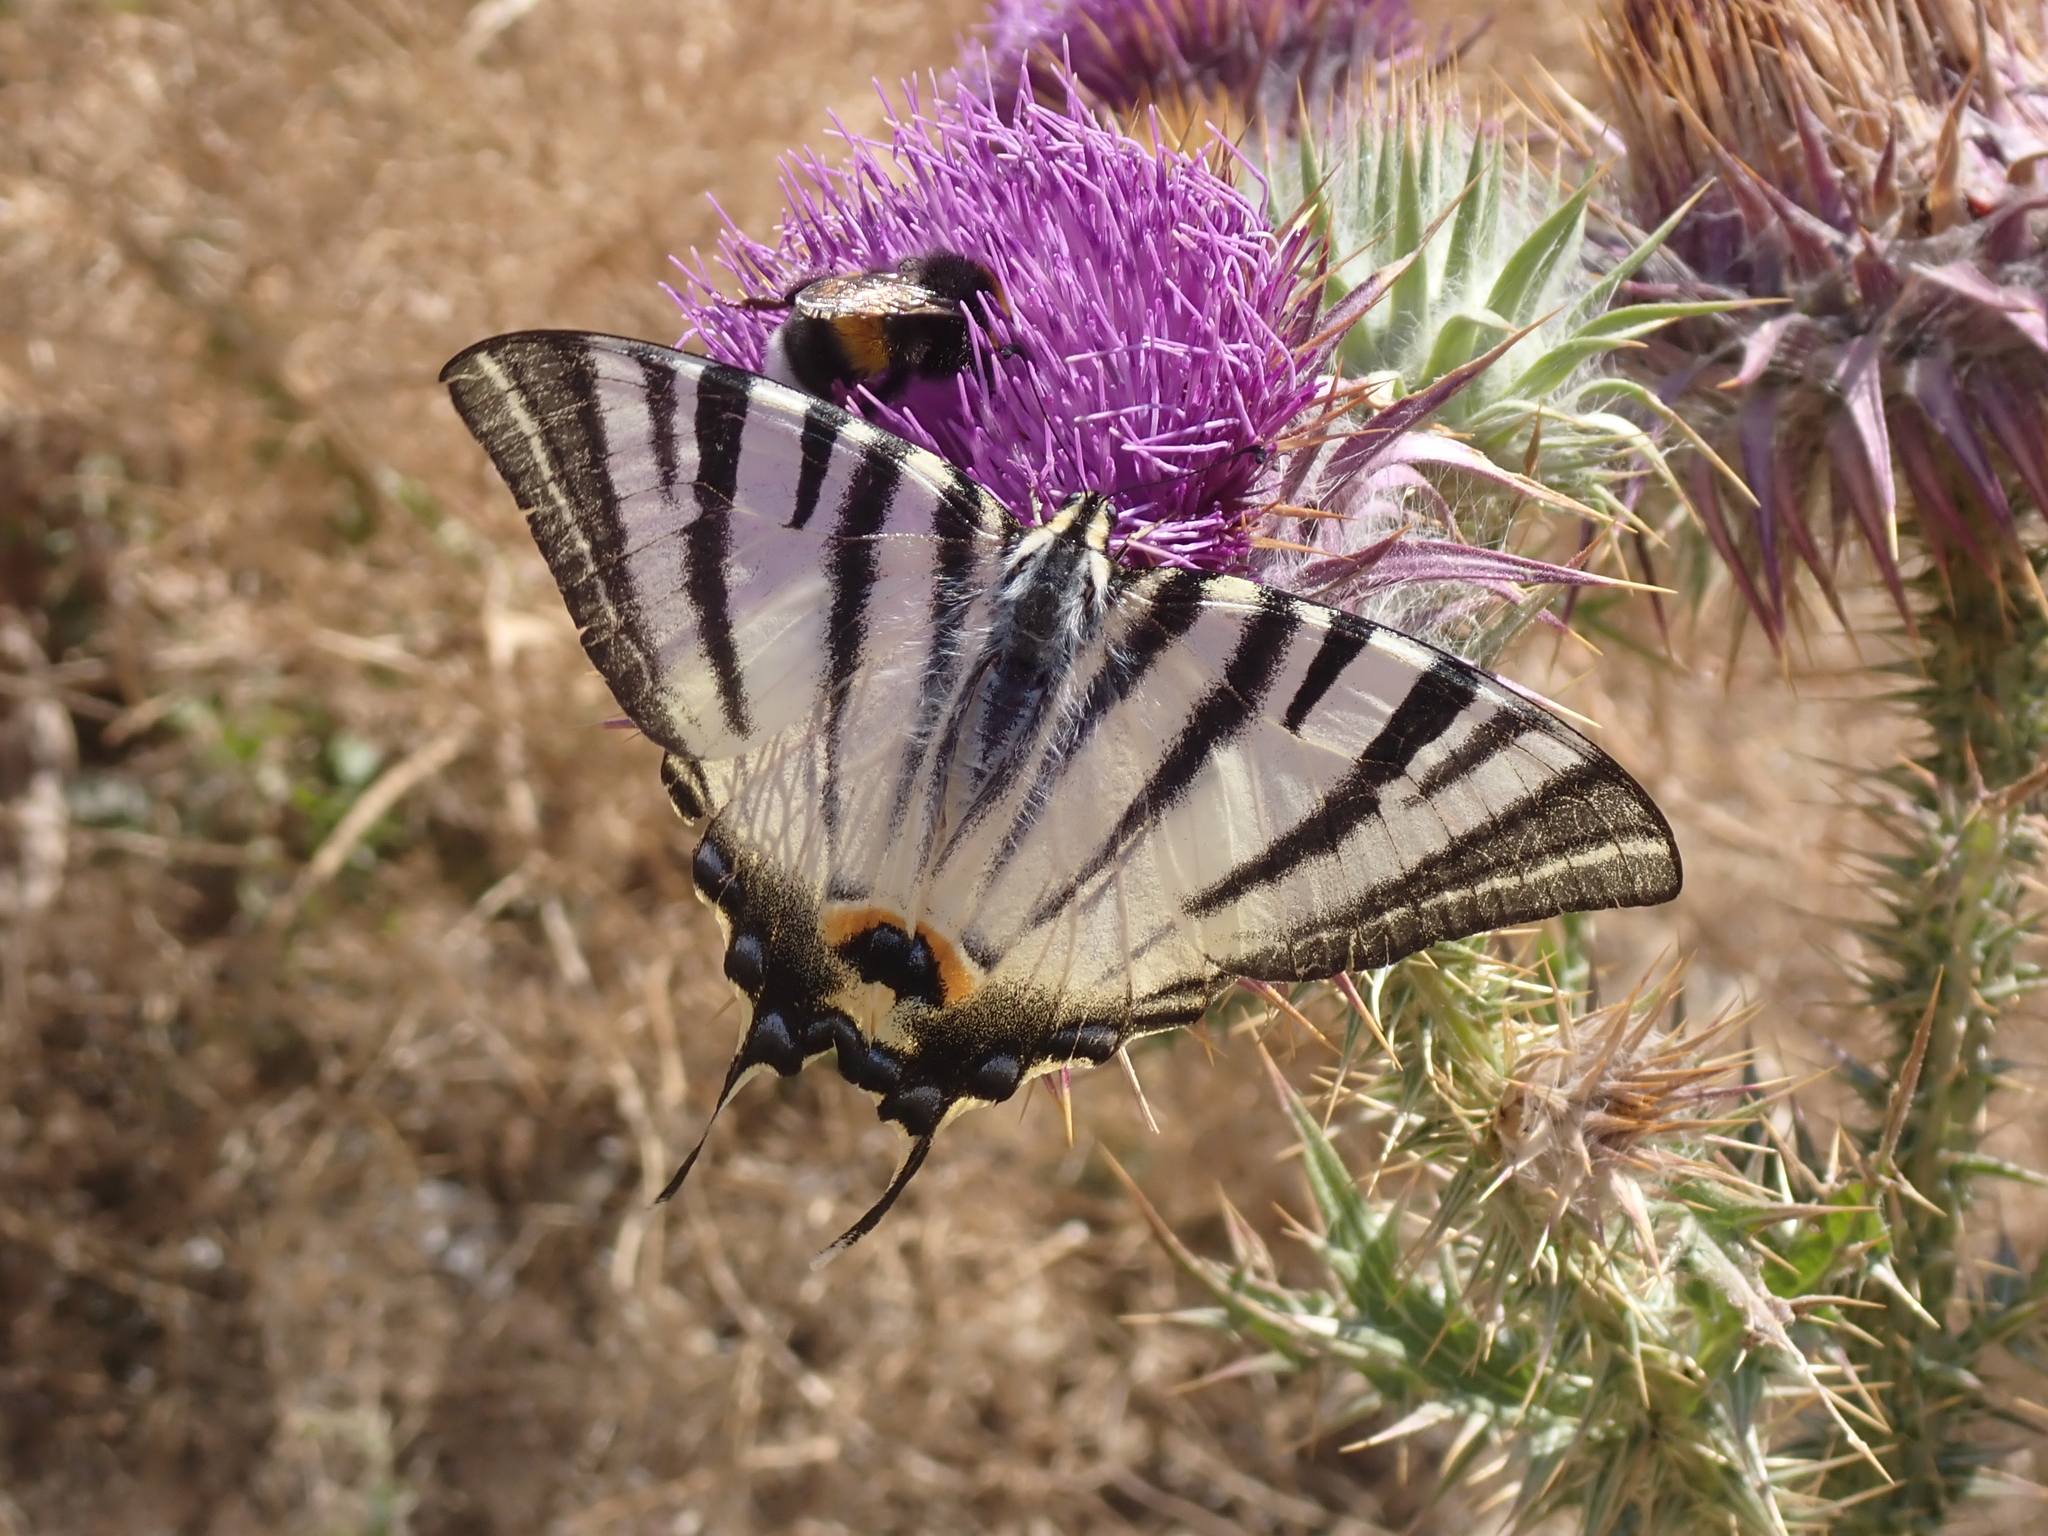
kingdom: Animalia
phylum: Arthropoda
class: Insecta
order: Lepidoptera
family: Papilionidae
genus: Iphiclides
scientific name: Iphiclides podalirius
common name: Scarce swallowtail
